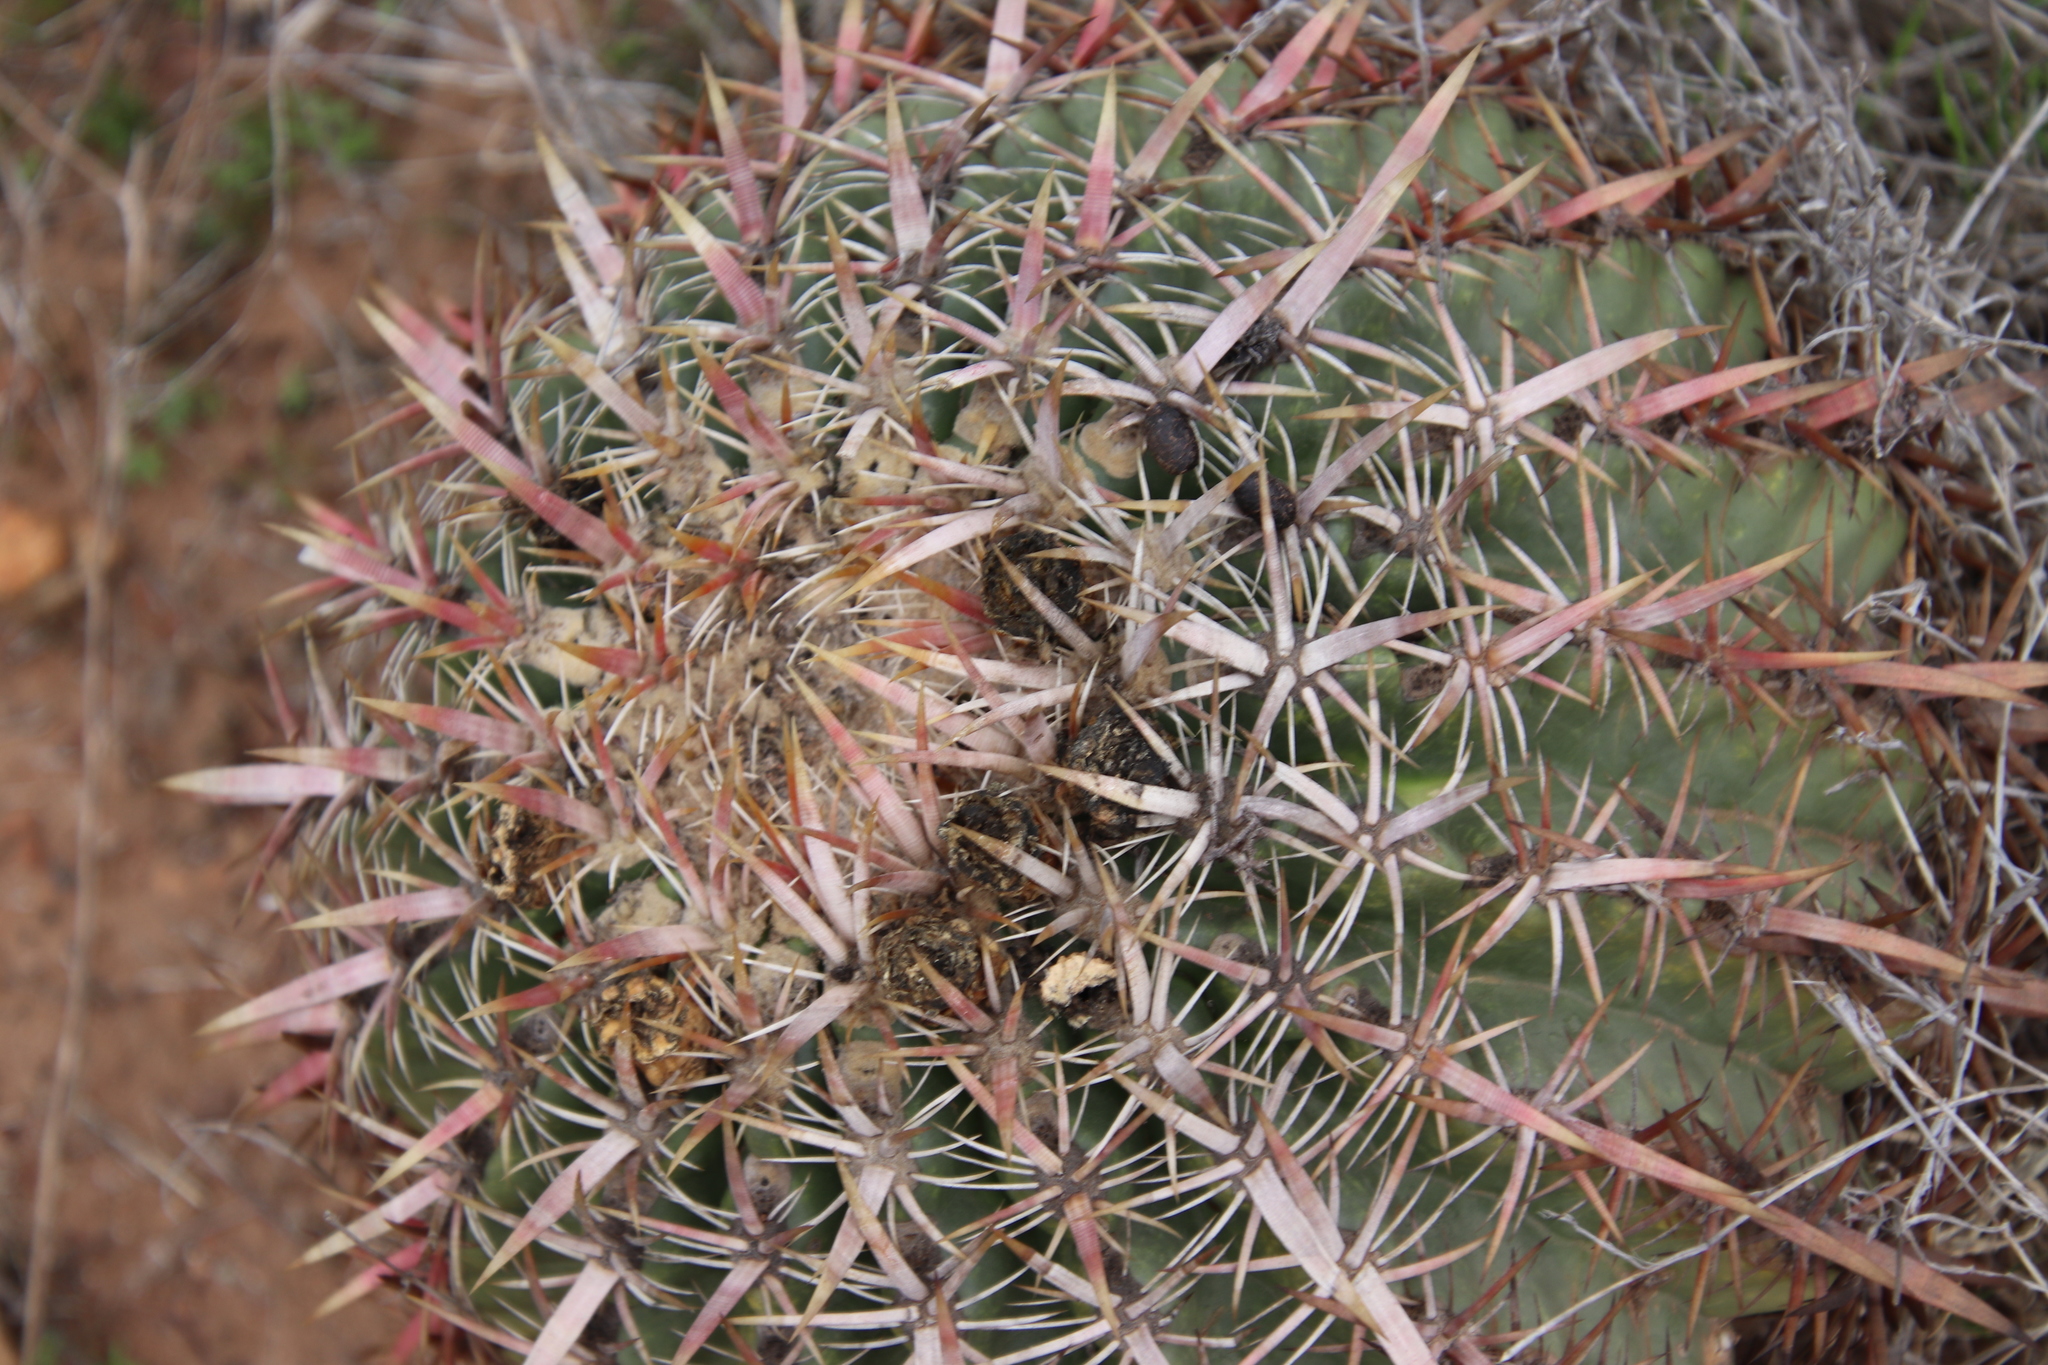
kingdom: Plantae
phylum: Tracheophyta
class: Magnoliopsida
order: Caryophyllales
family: Cactaceae
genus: Ferocactus
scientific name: Ferocactus viridescens
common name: San diego barrel cactus
